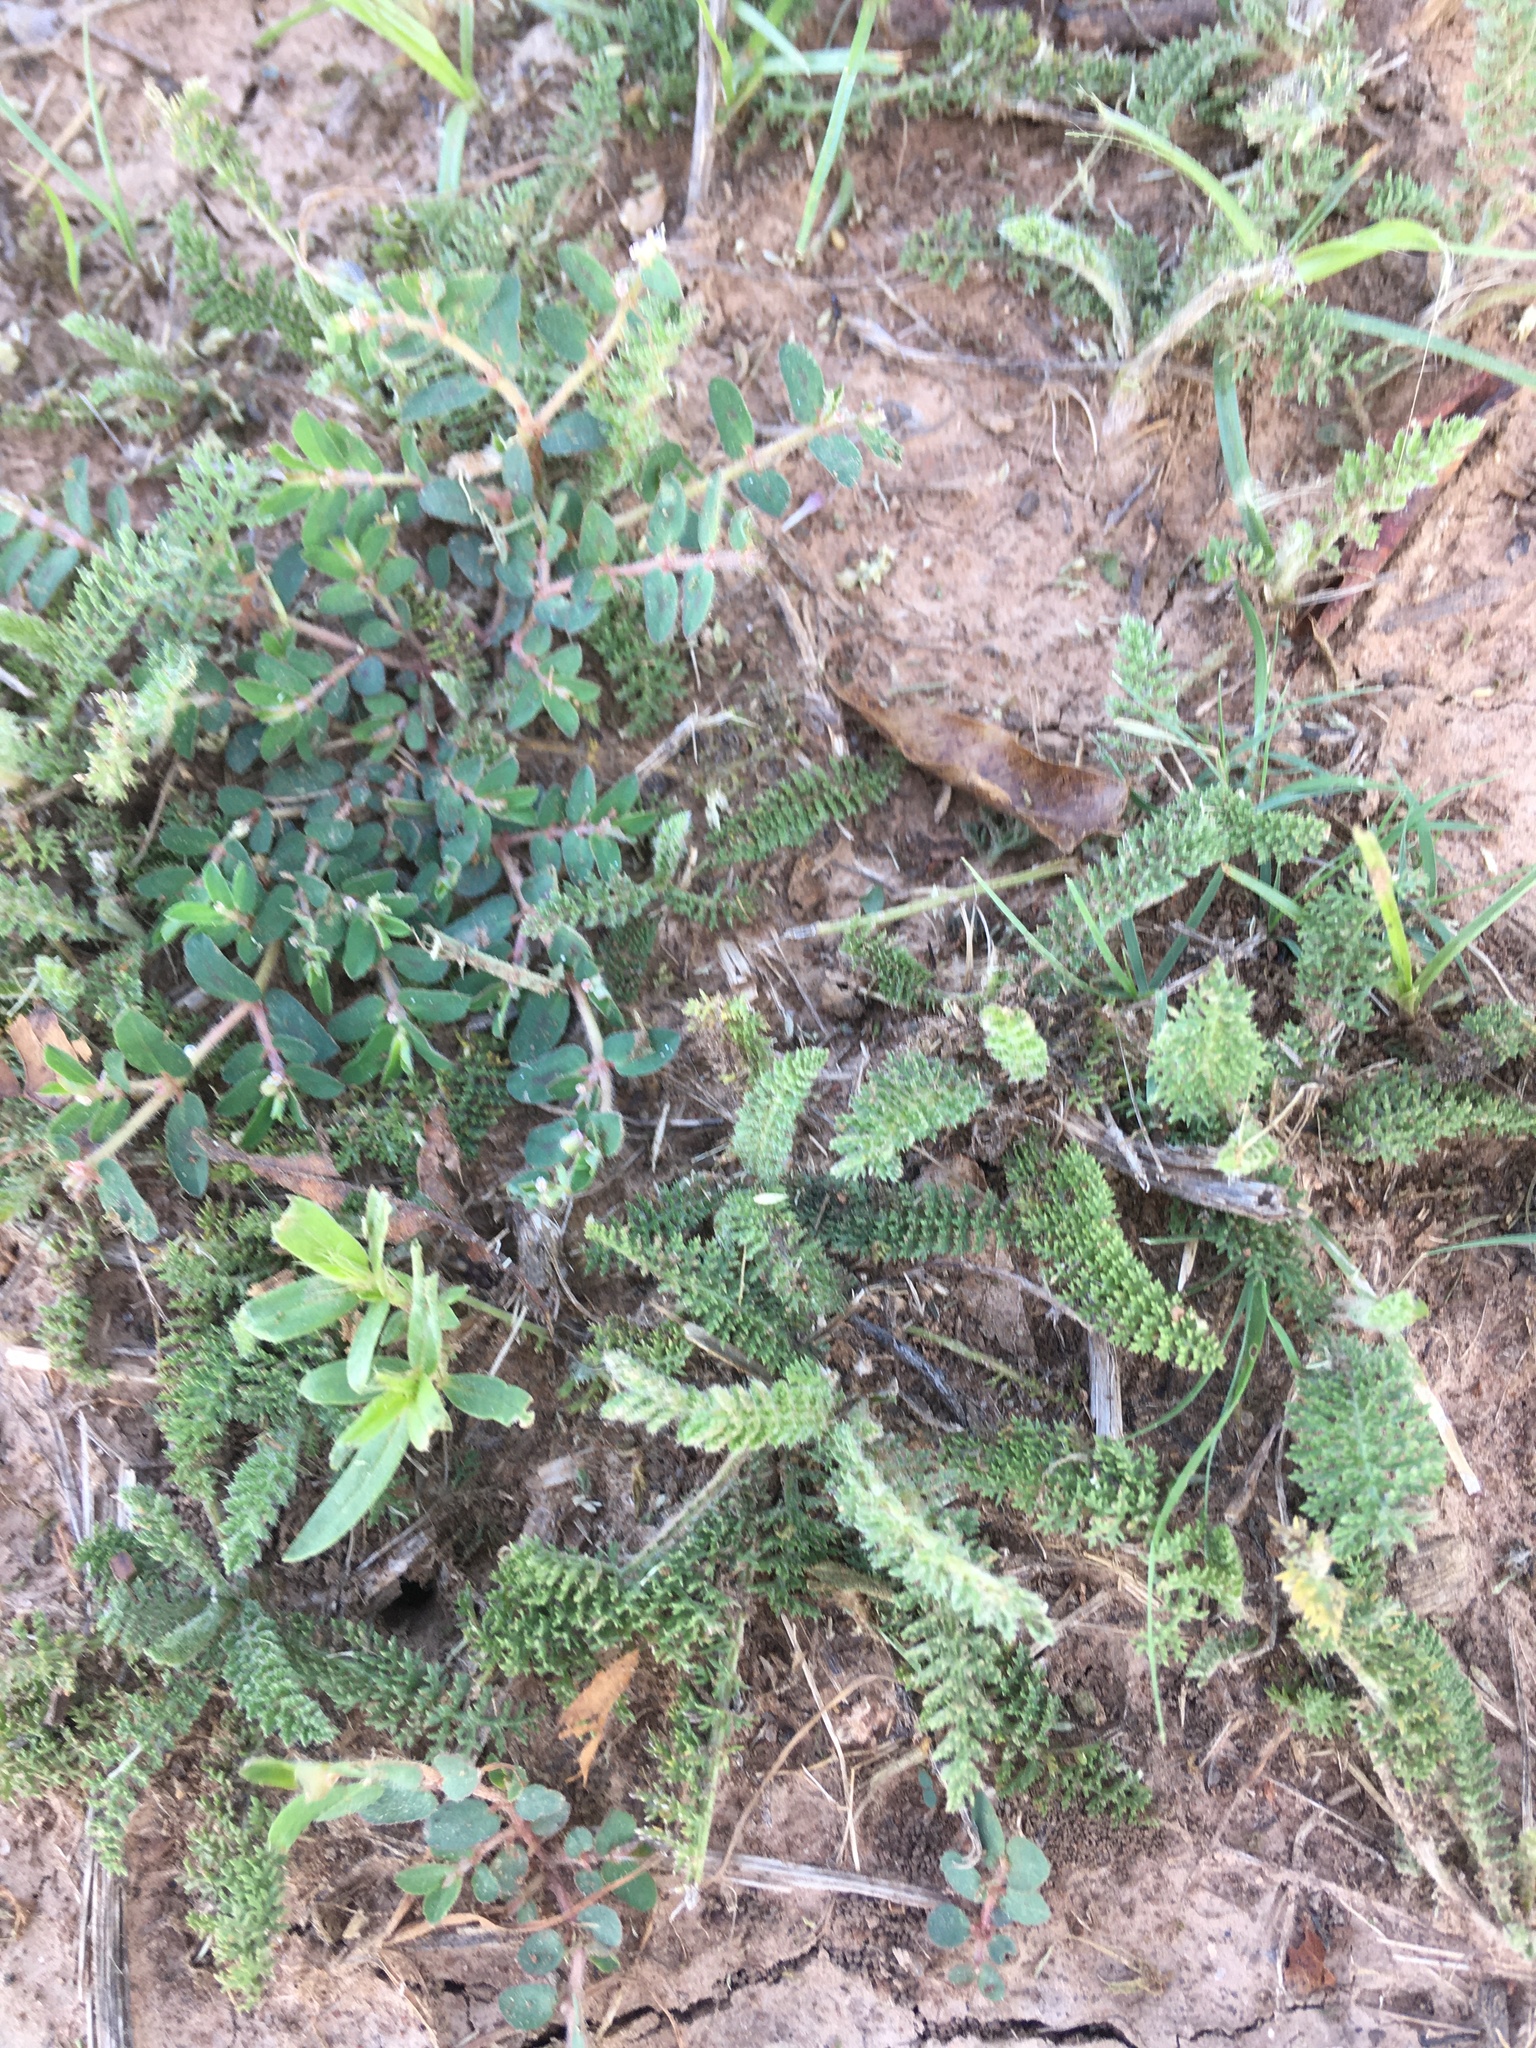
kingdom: Plantae
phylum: Tracheophyta
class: Magnoliopsida
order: Asterales
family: Asteraceae
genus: Achillea
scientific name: Achillea millefolium
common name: Yarrow
